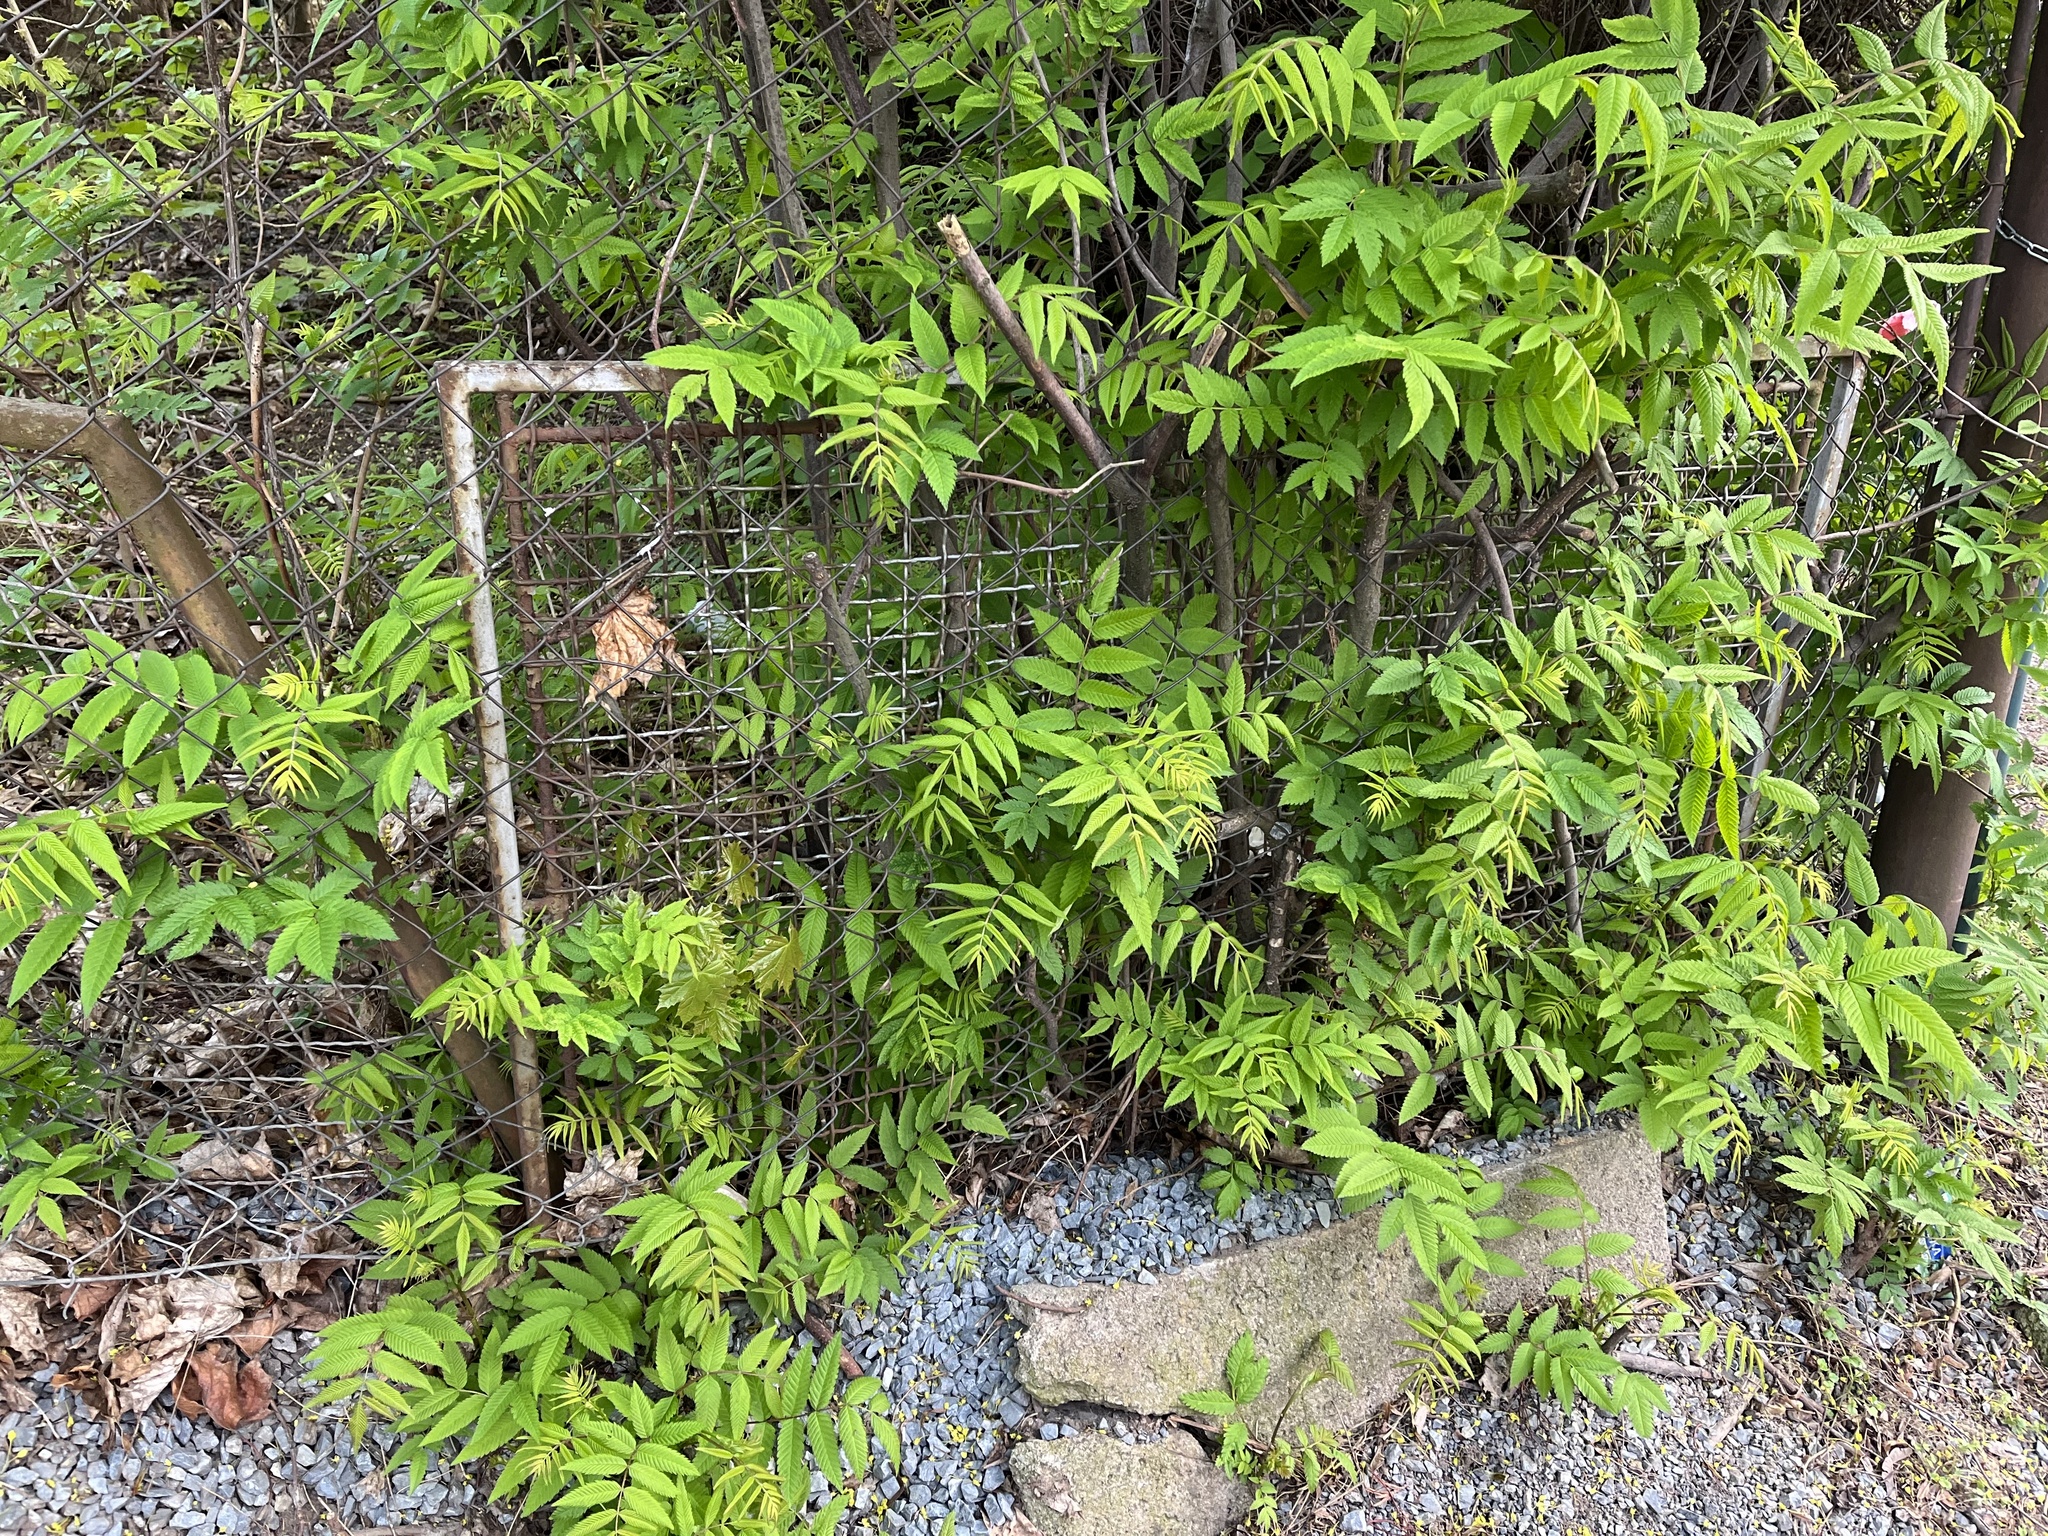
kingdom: Plantae
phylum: Tracheophyta
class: Magnoliopsida
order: Rosales
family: Rosaceae
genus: Sorbaria
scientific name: Sorbaria sorbifolia
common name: False spiraea
